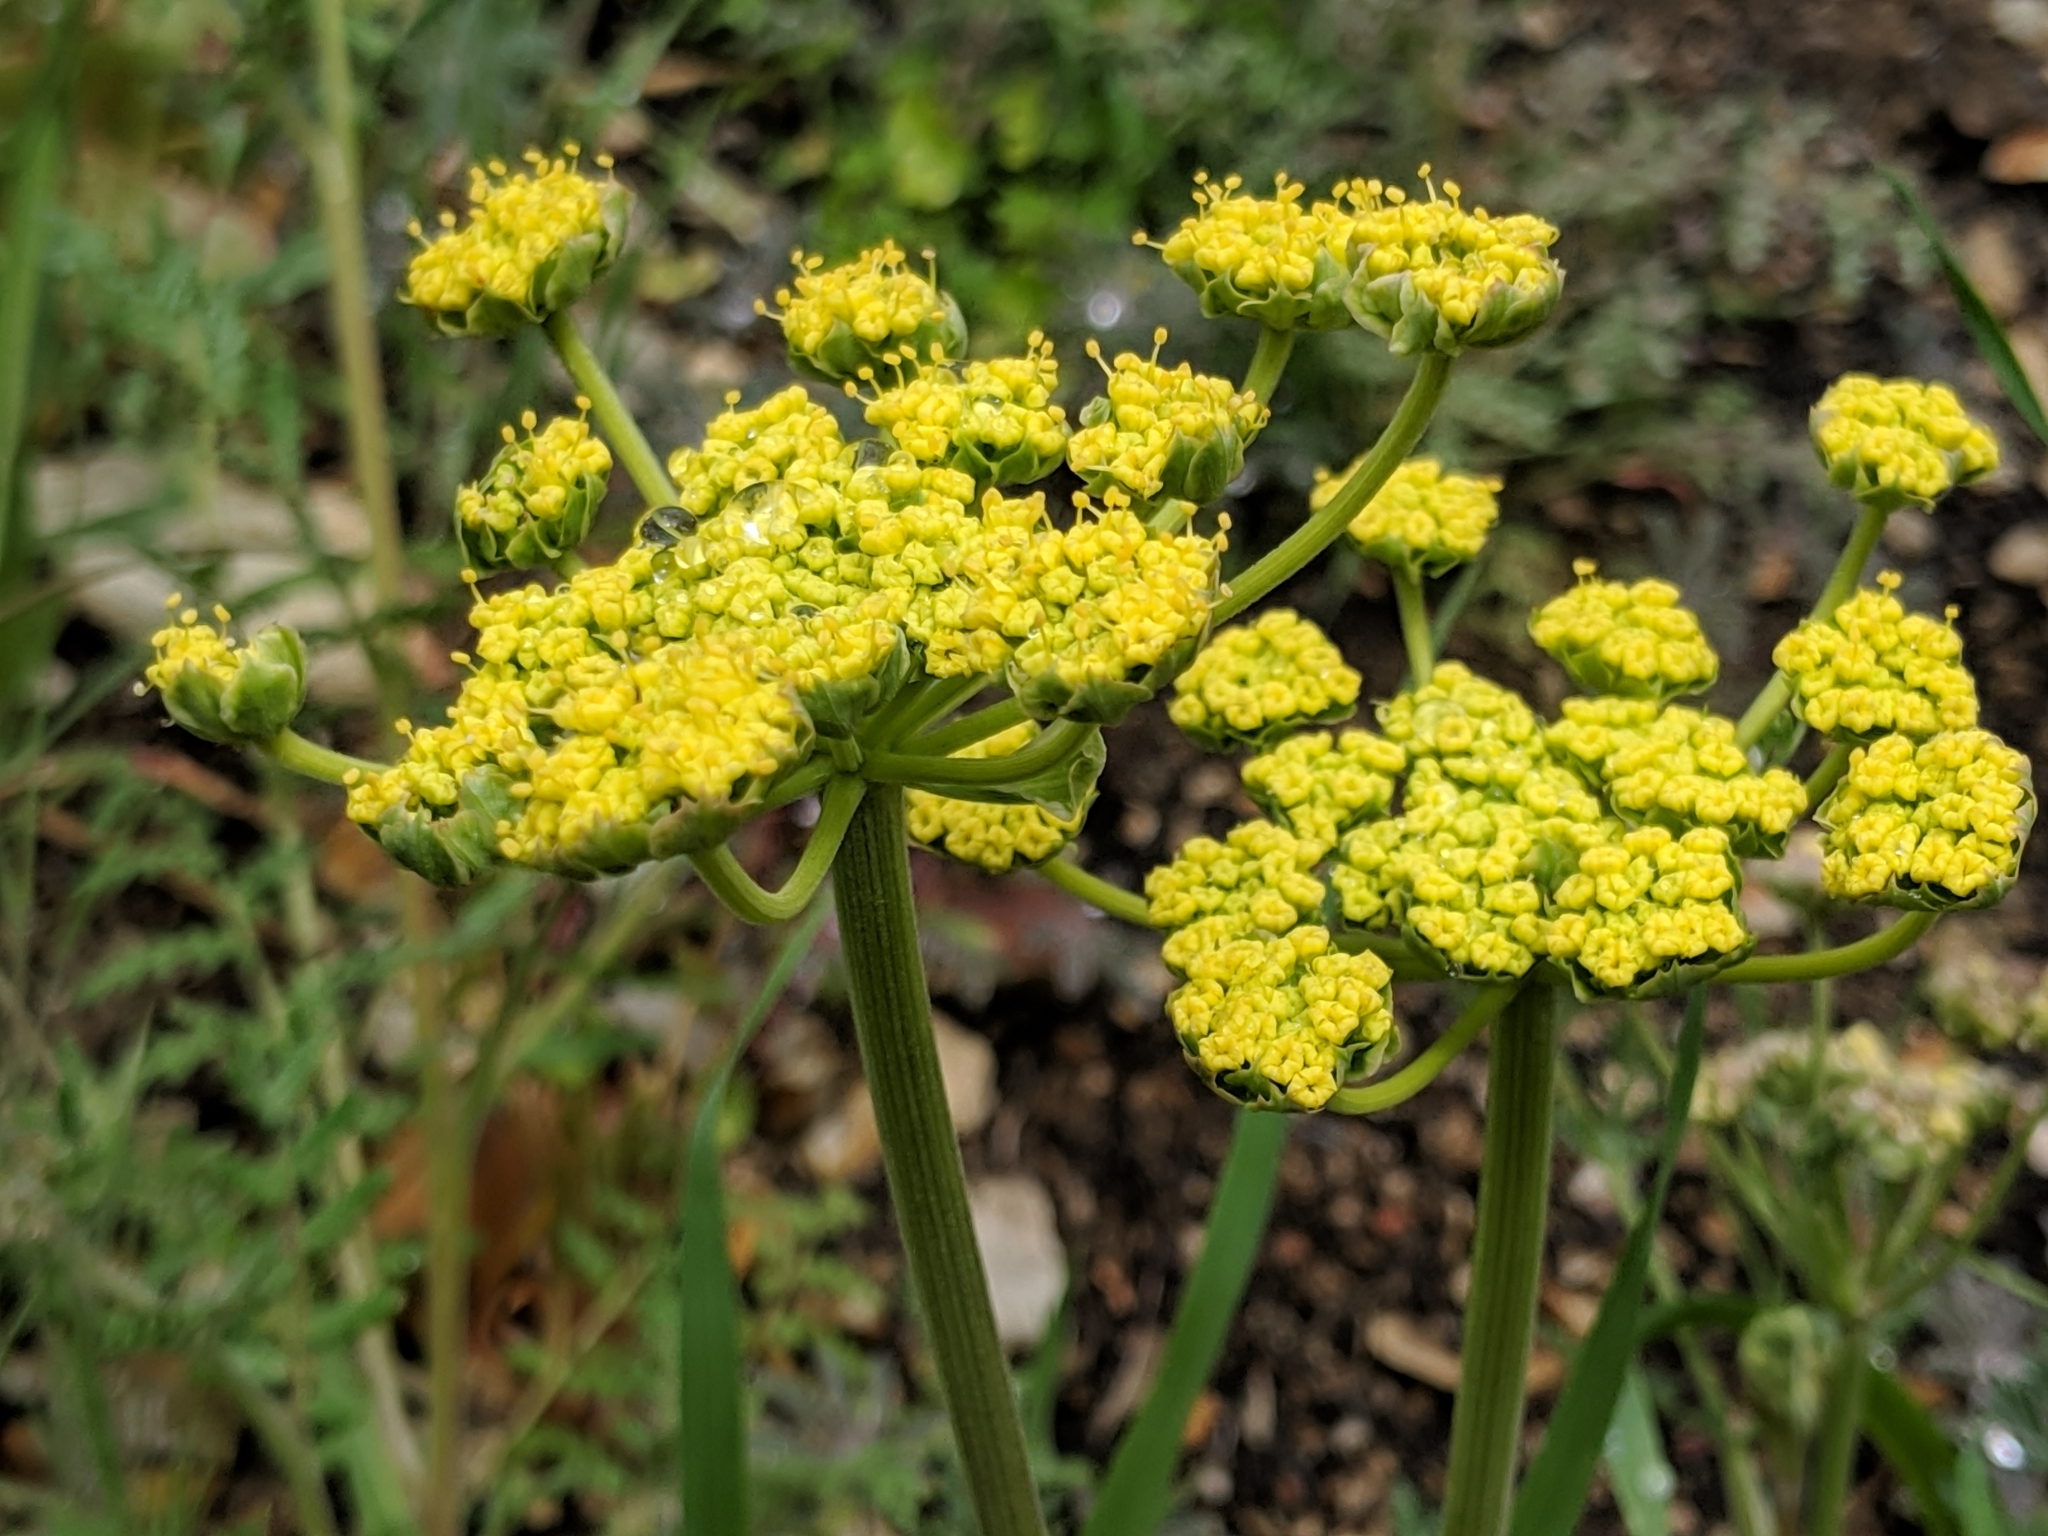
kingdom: Plantae
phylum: Tracheophyta
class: Magnoliopsida
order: Apiales
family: Apiaceae
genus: Lomatium
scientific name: Lomatium utriculatum
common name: Fine-leaf desert-parsley
